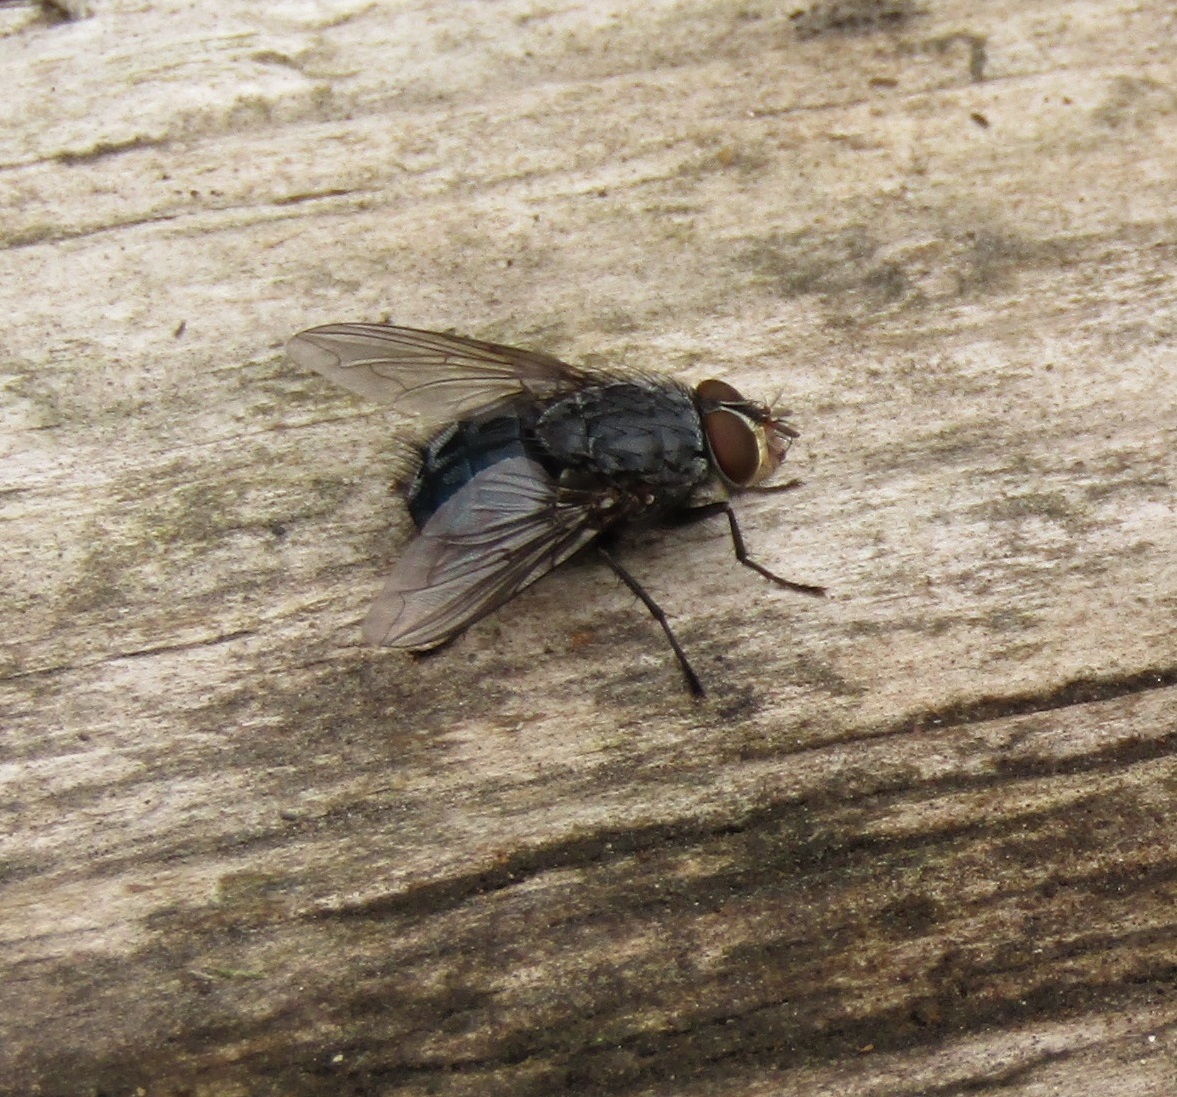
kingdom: Animalia
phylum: Arthropoda
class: Insecta
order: Diptera
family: Calliphoridae
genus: Calliphora
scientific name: Calliphora vicina
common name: Common blow flie
